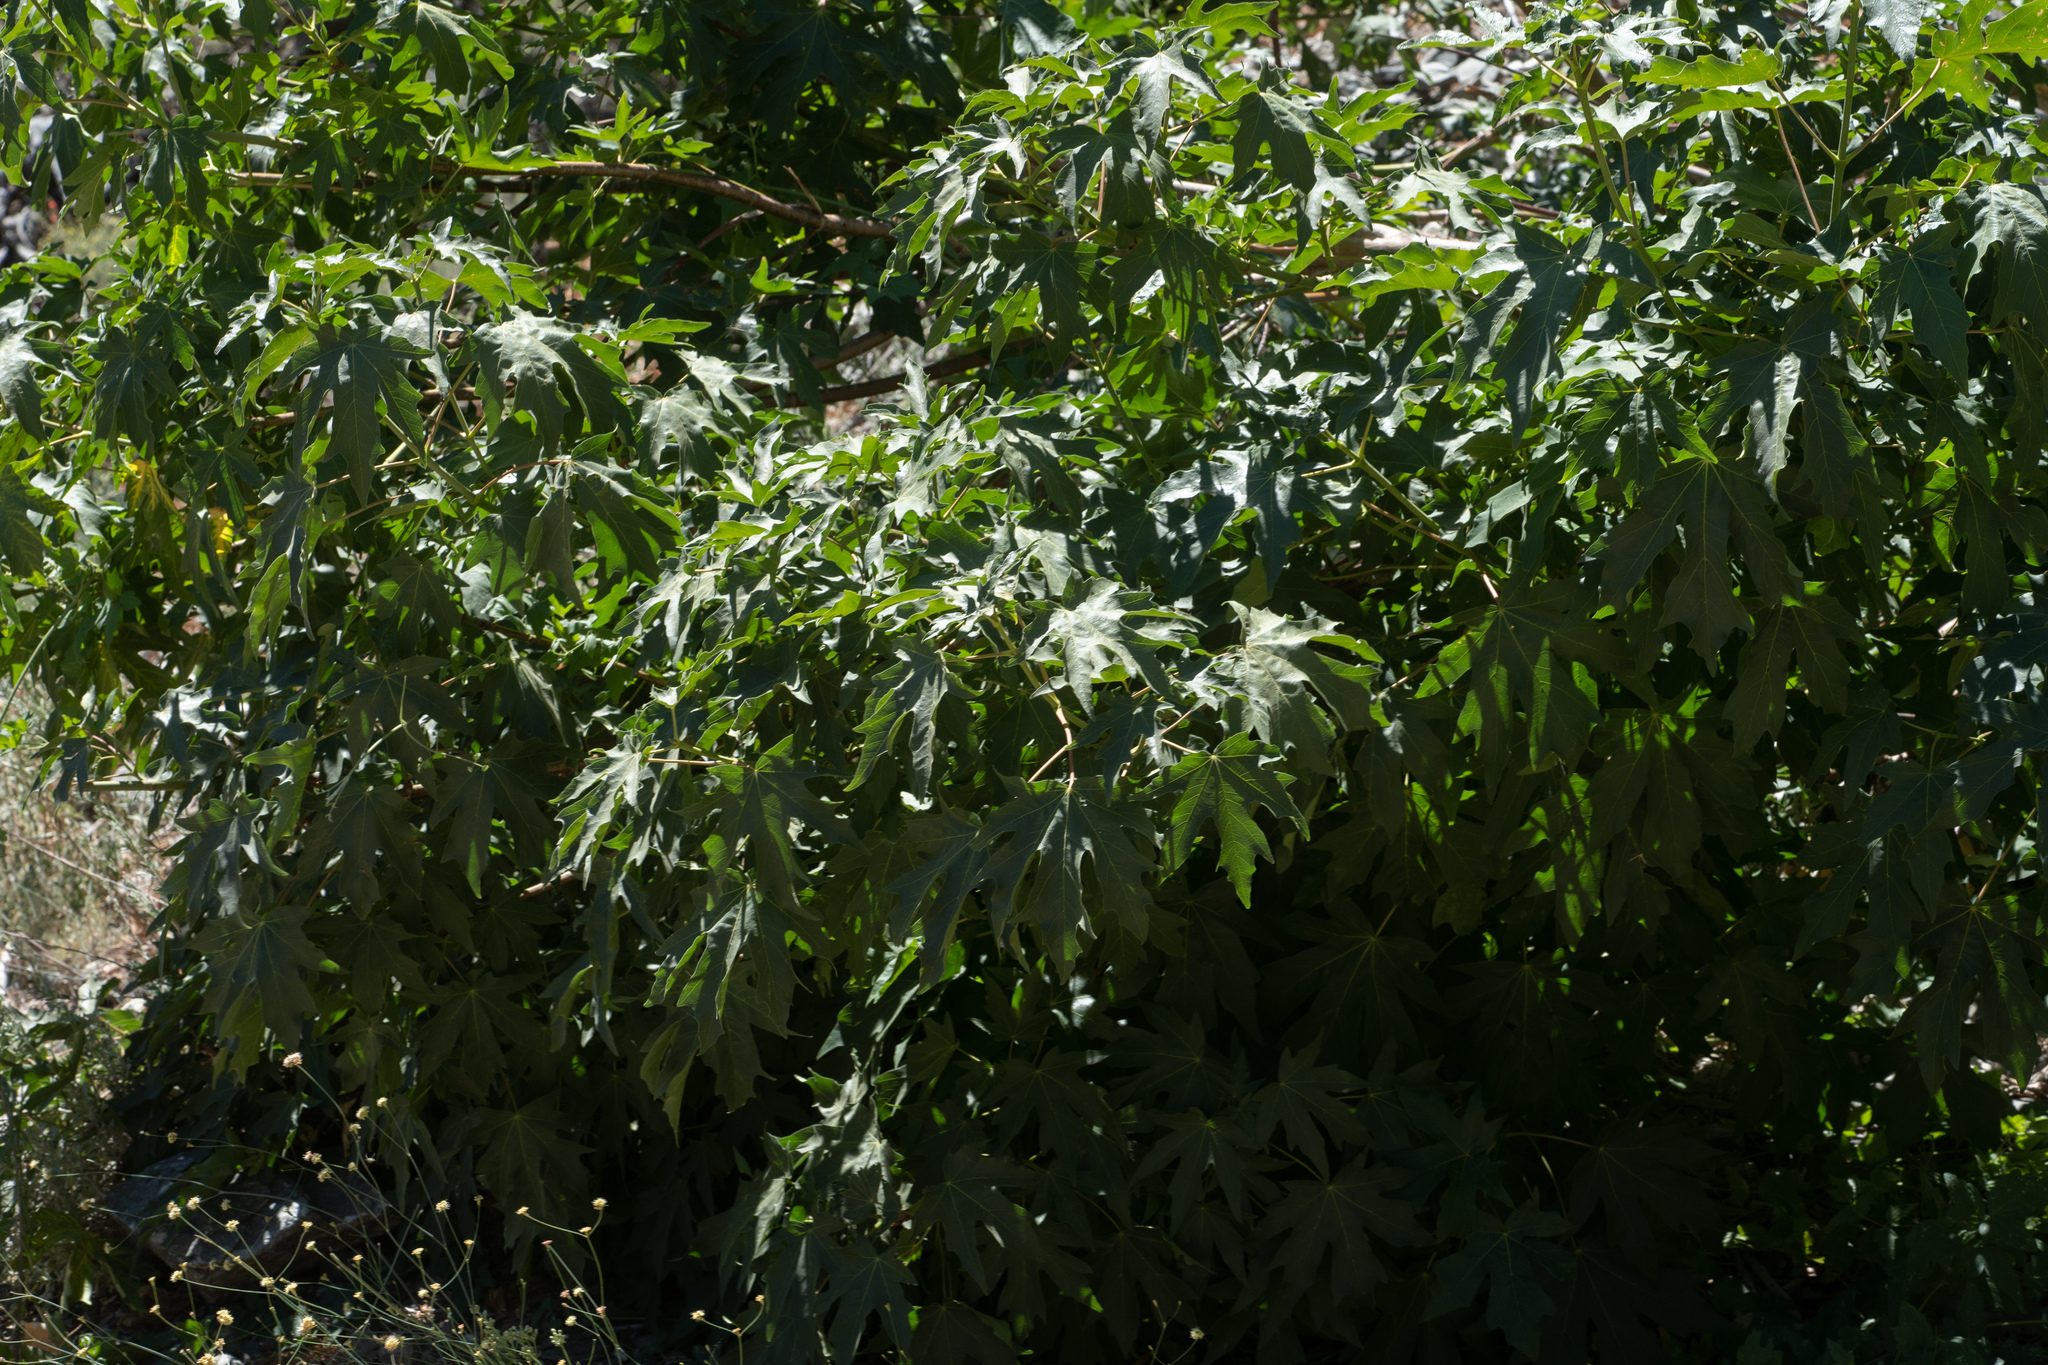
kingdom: Plantae
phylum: Tracheophyta
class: Magnoliopsida
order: Sapindales
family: Sapindaceae
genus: Acer
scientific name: Acer macrophyllum
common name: Oregon maple
